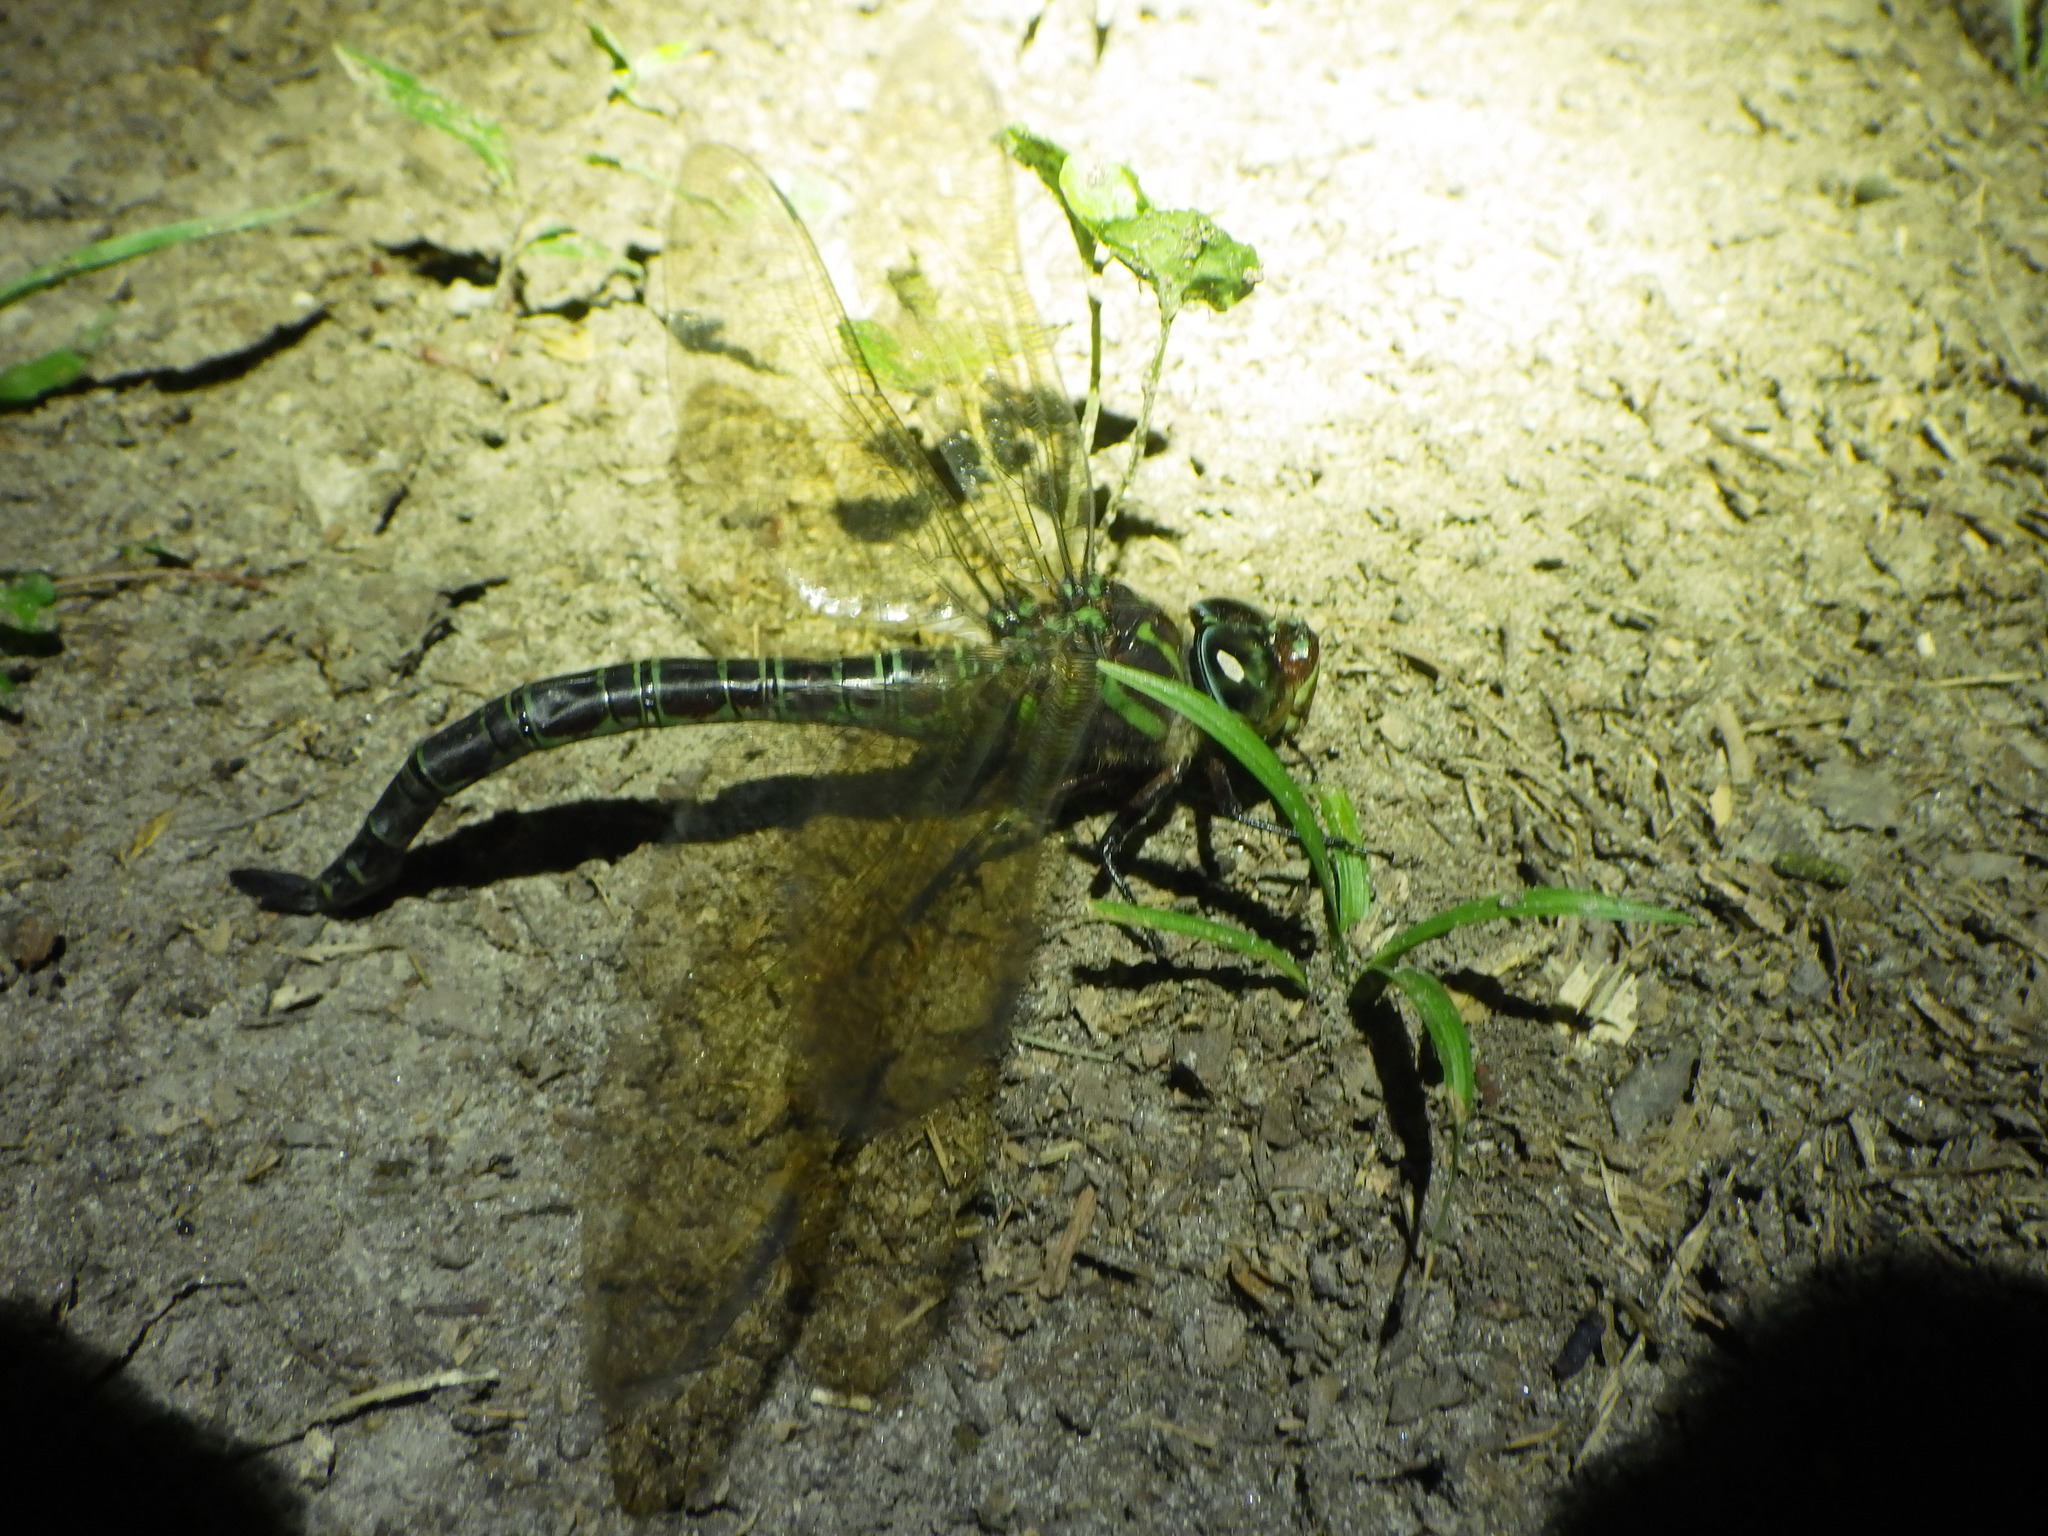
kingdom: Animalia
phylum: Arthropoda
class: Insecta
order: Odonata
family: Aeshnidae
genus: Epiaeschna
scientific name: Epiaeschna heros
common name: Swamp darner
